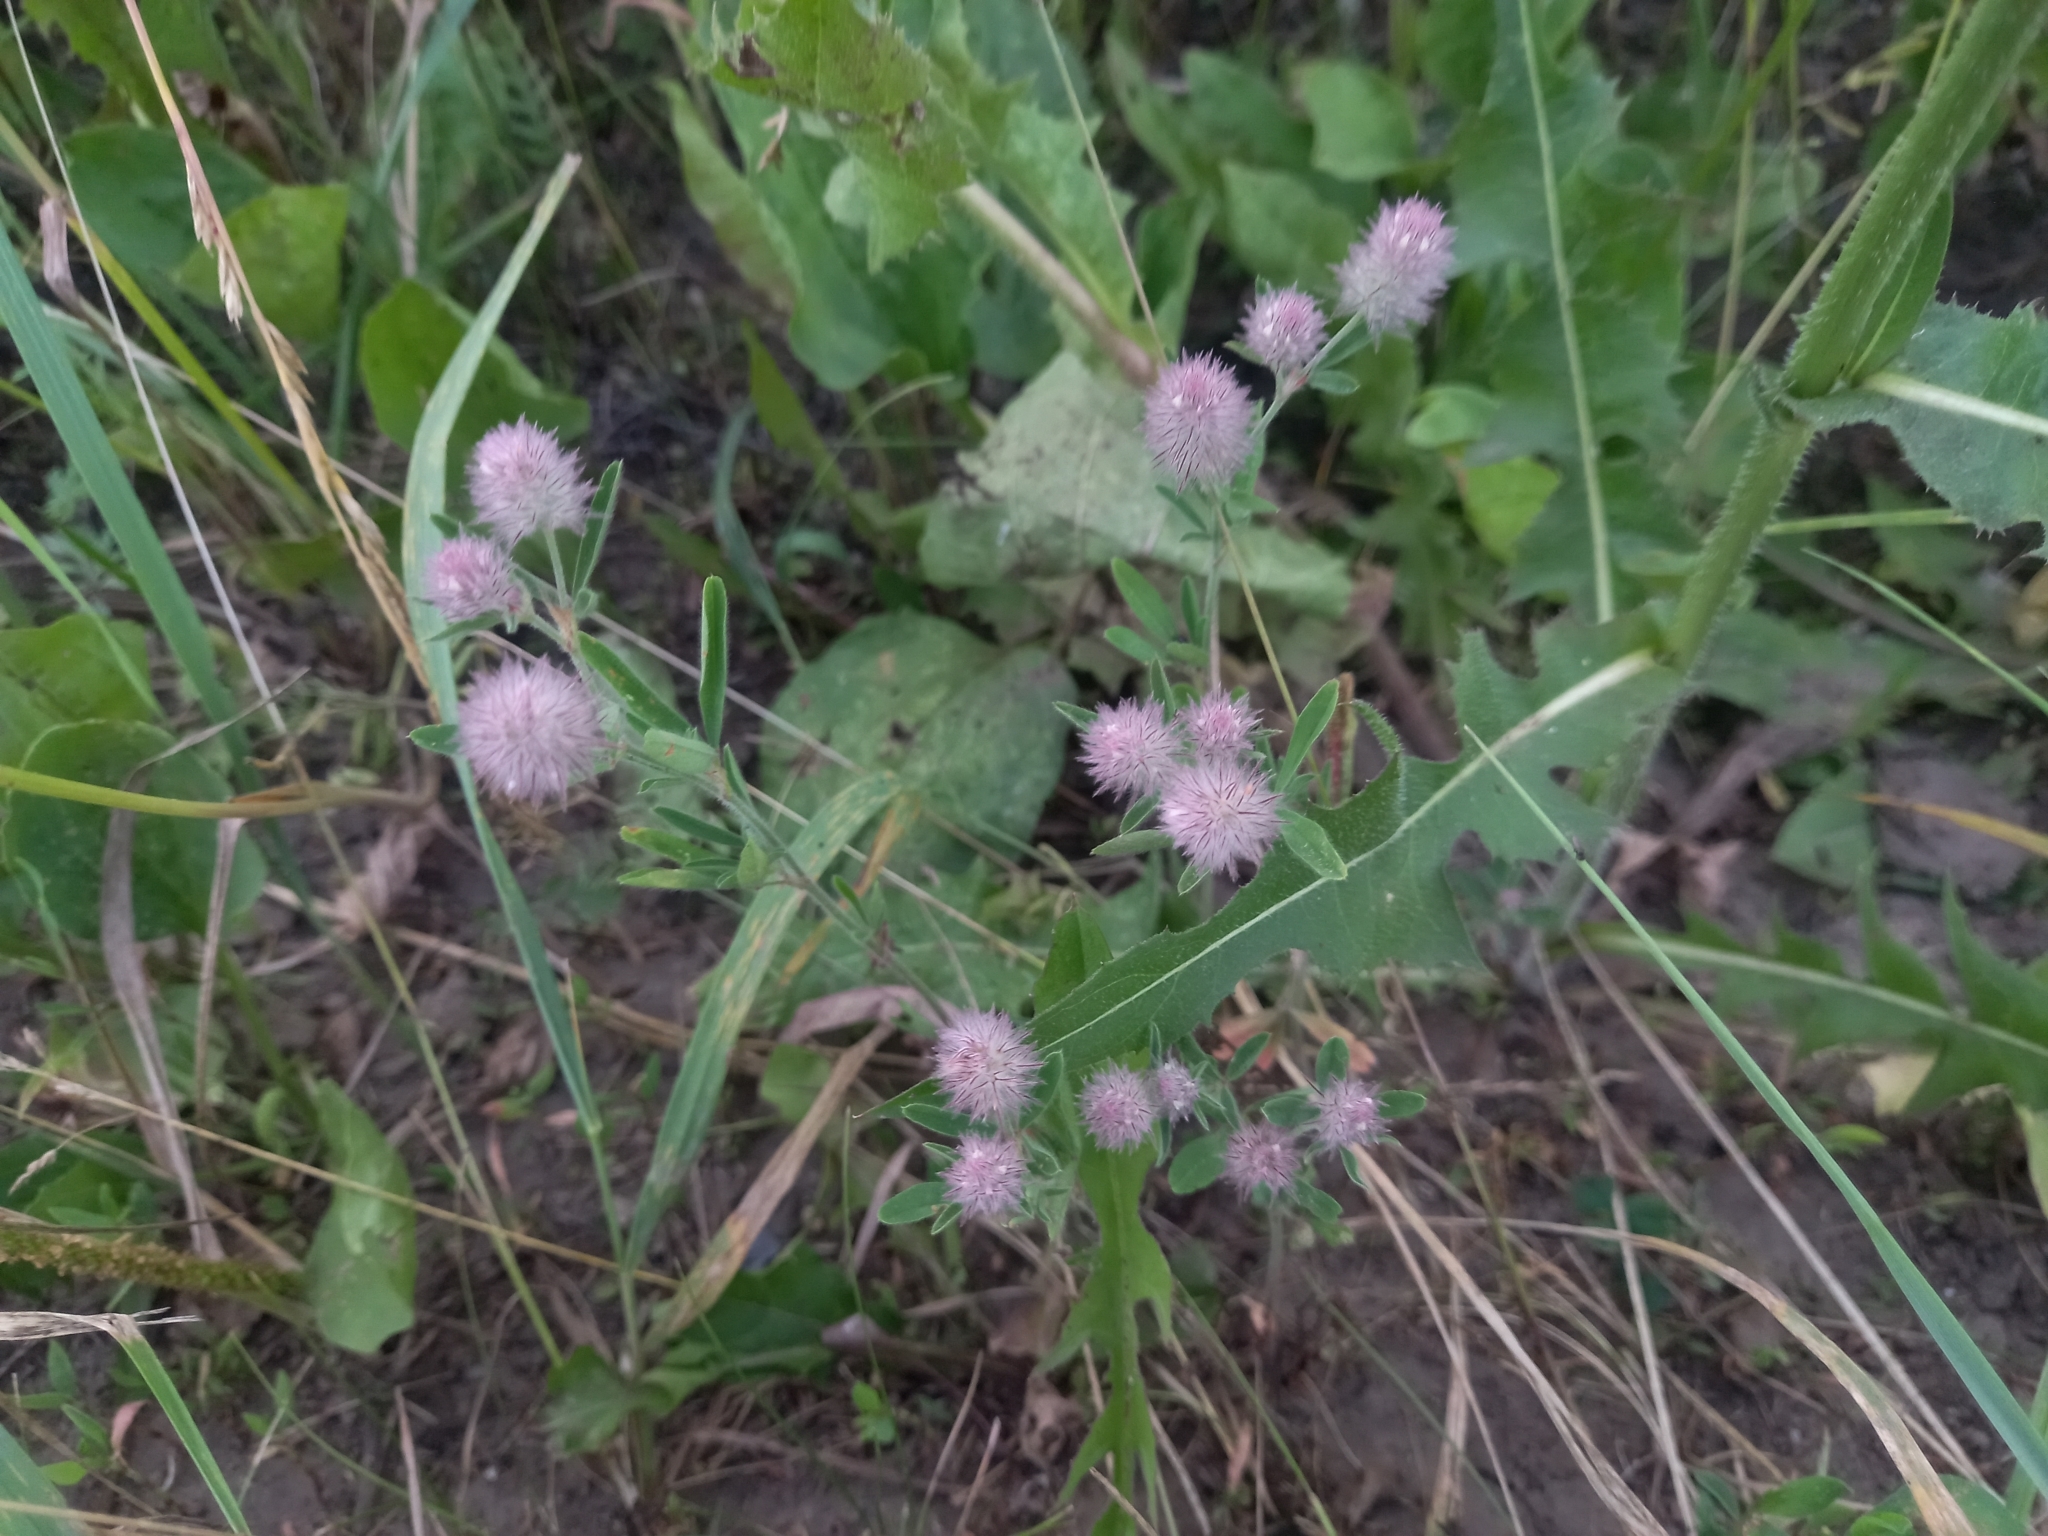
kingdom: Plantae
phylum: Tracheophyta
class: Magnoliopsida
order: Fabales
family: Fabaceae
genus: Trifolium
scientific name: Trifolium arvense
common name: Hare's-foot clover
